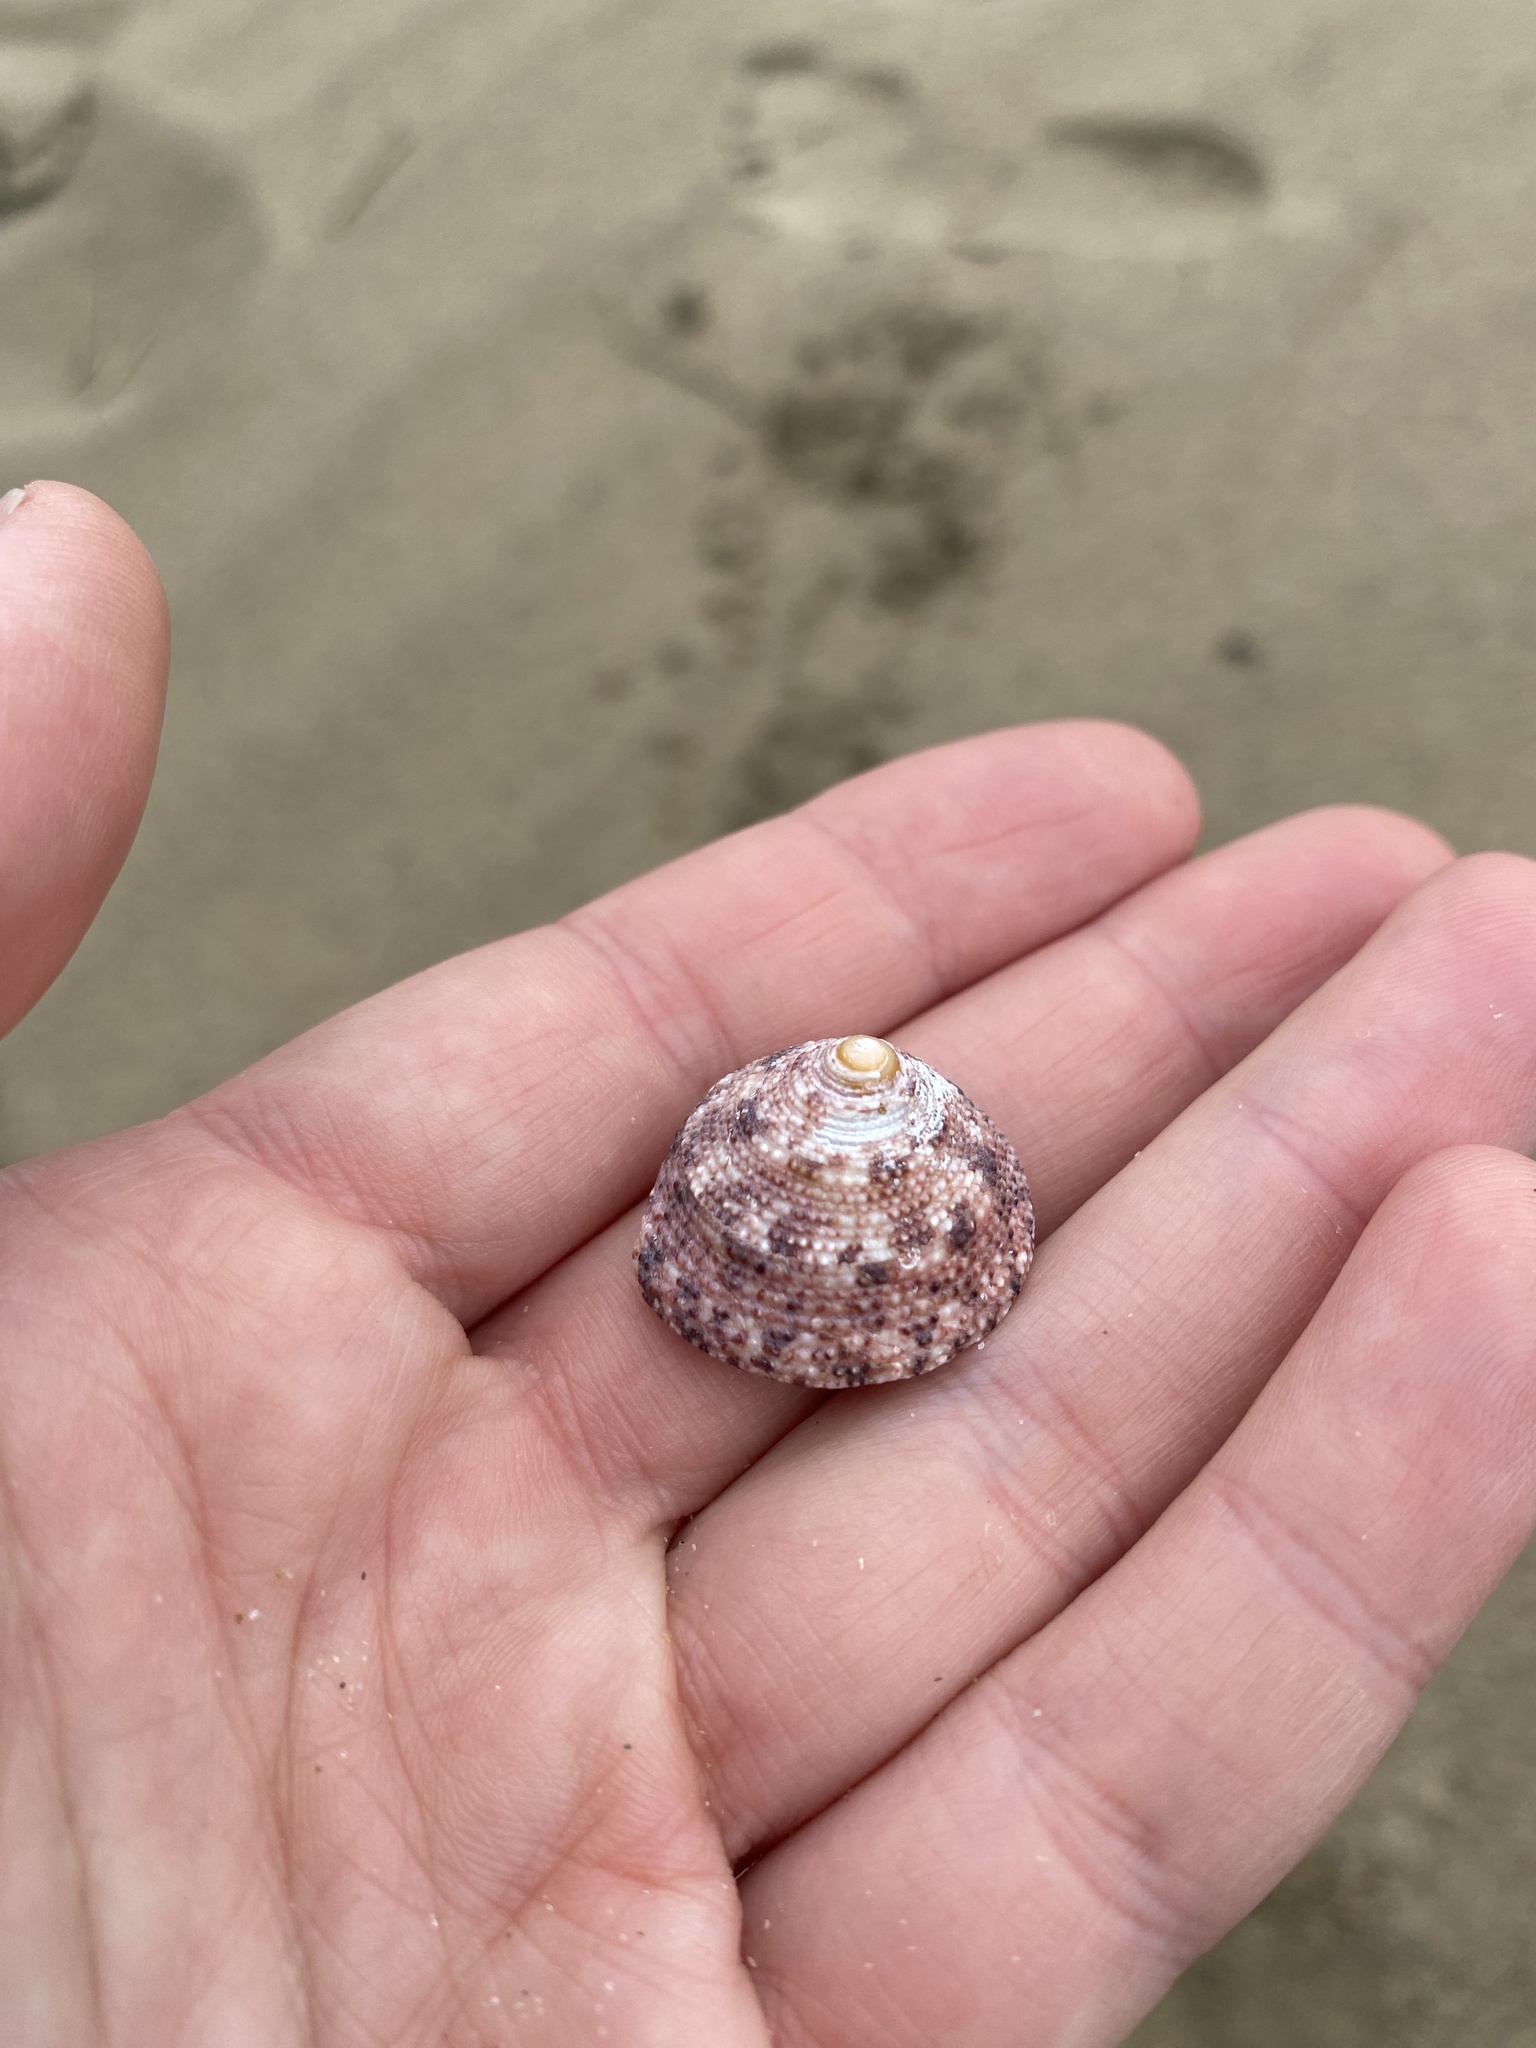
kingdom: Animalia
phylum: Mollusca
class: Gastropoda
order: Trochida
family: Trochidae
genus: Trochus
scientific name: Trochus nigropunctatus
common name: Black-spotted topshell
